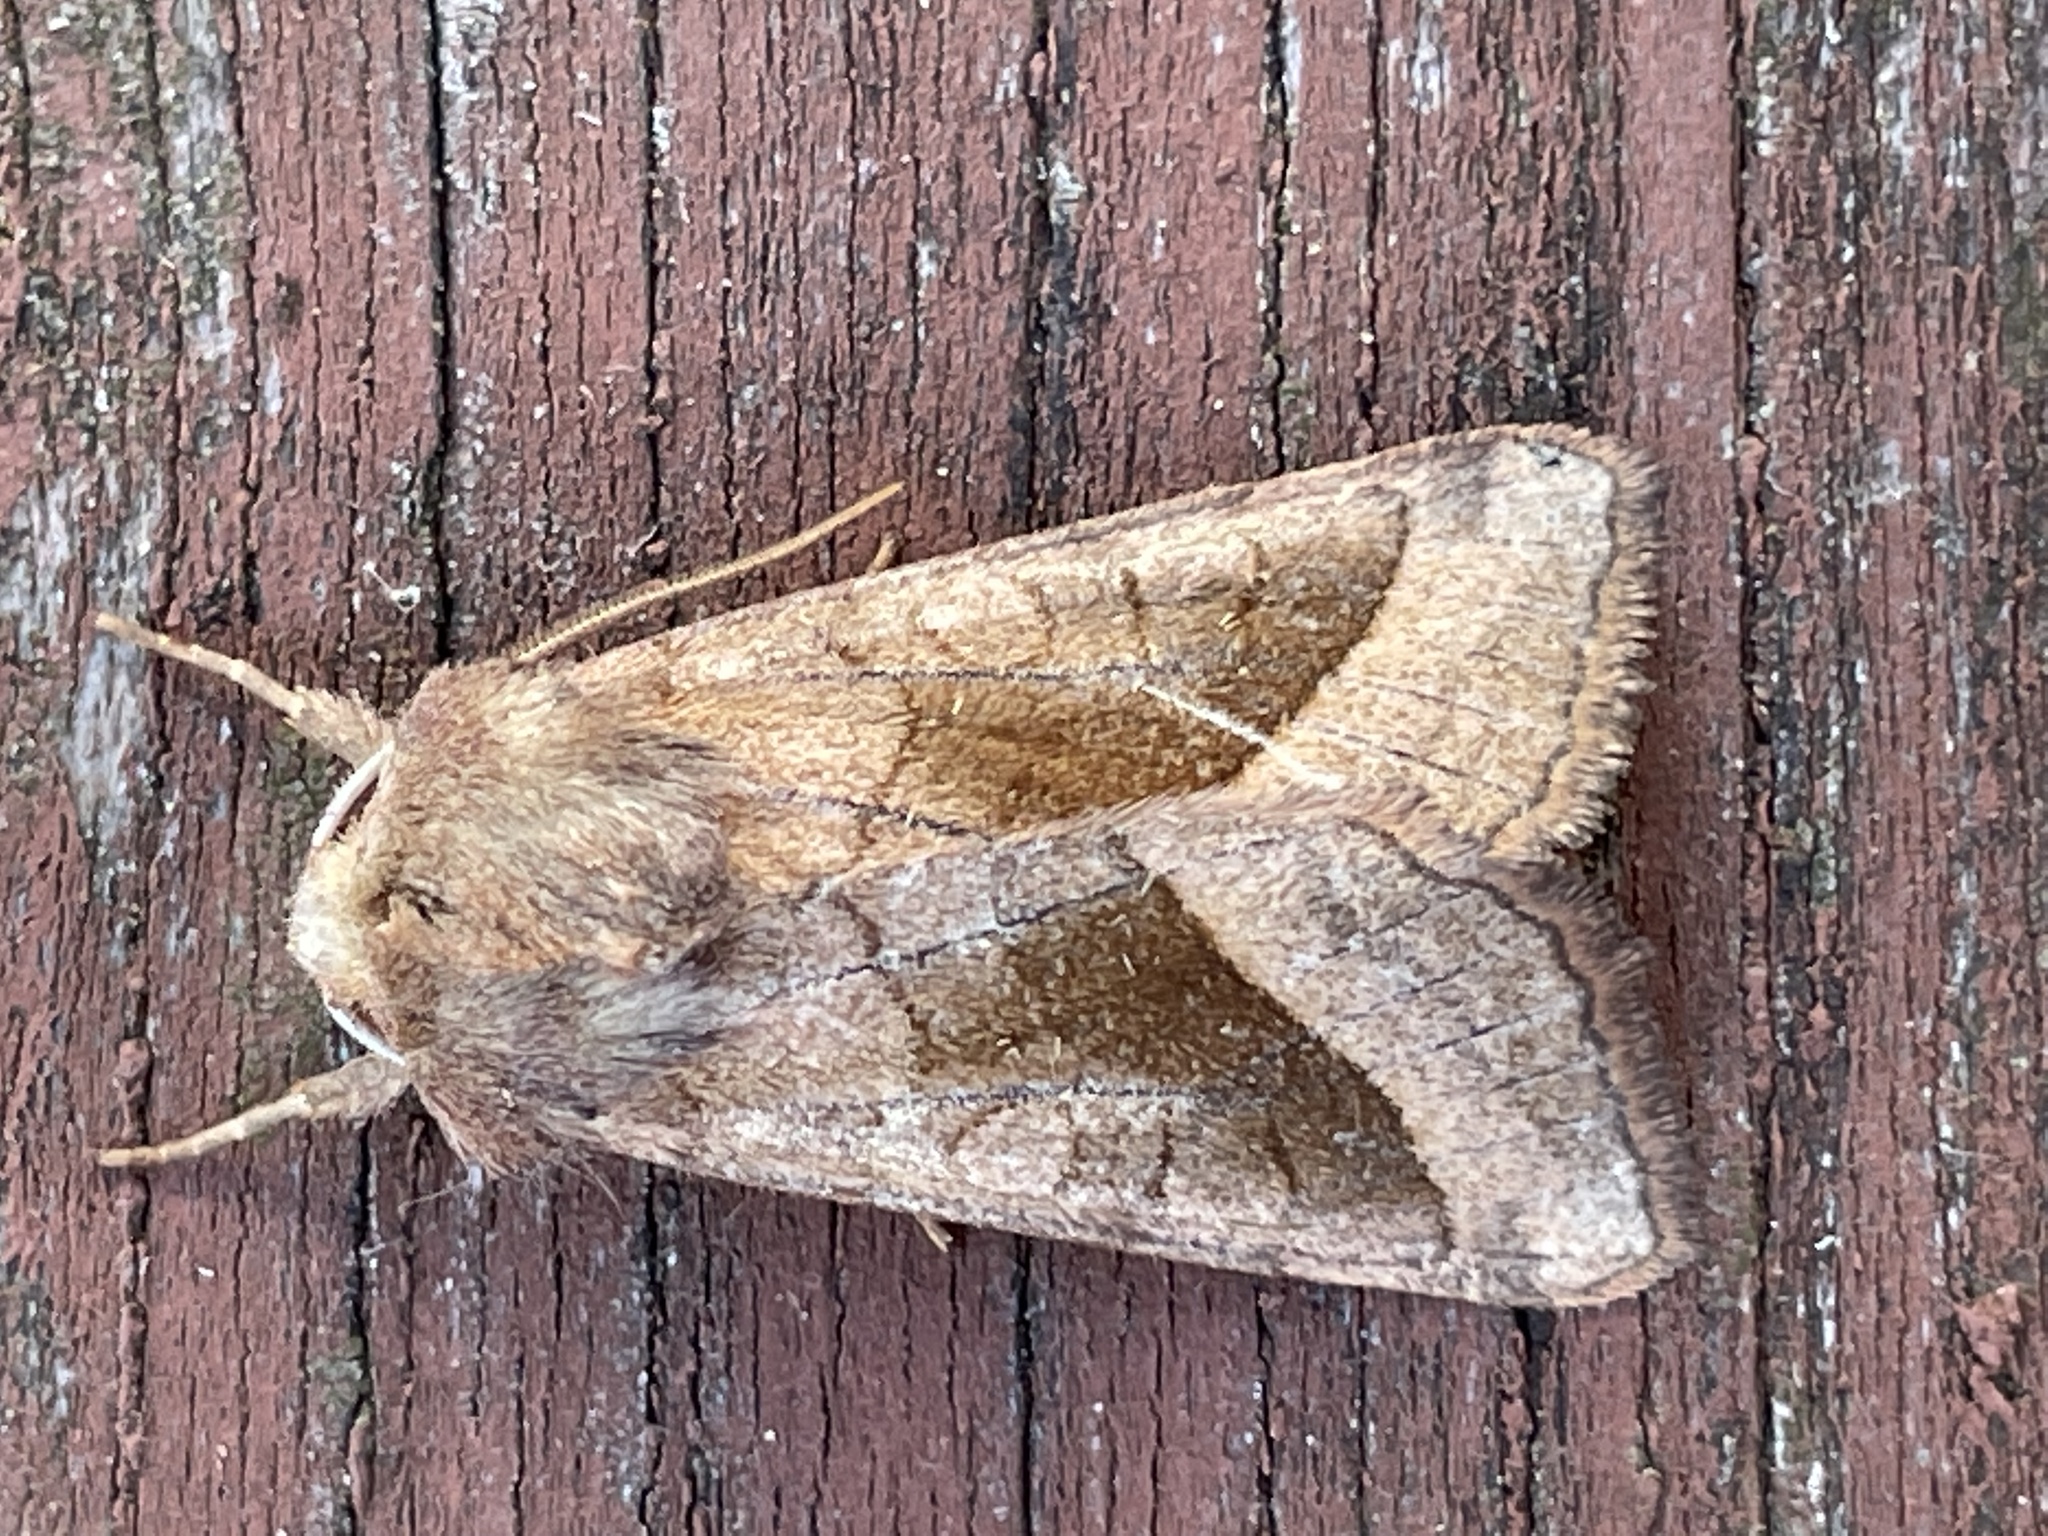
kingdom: Animalia
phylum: Arthropoda
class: Insecta
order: Lepidoptera
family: Noctuidae
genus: Hydraecia
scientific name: Hydraecia micacea
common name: Rosy rustic
